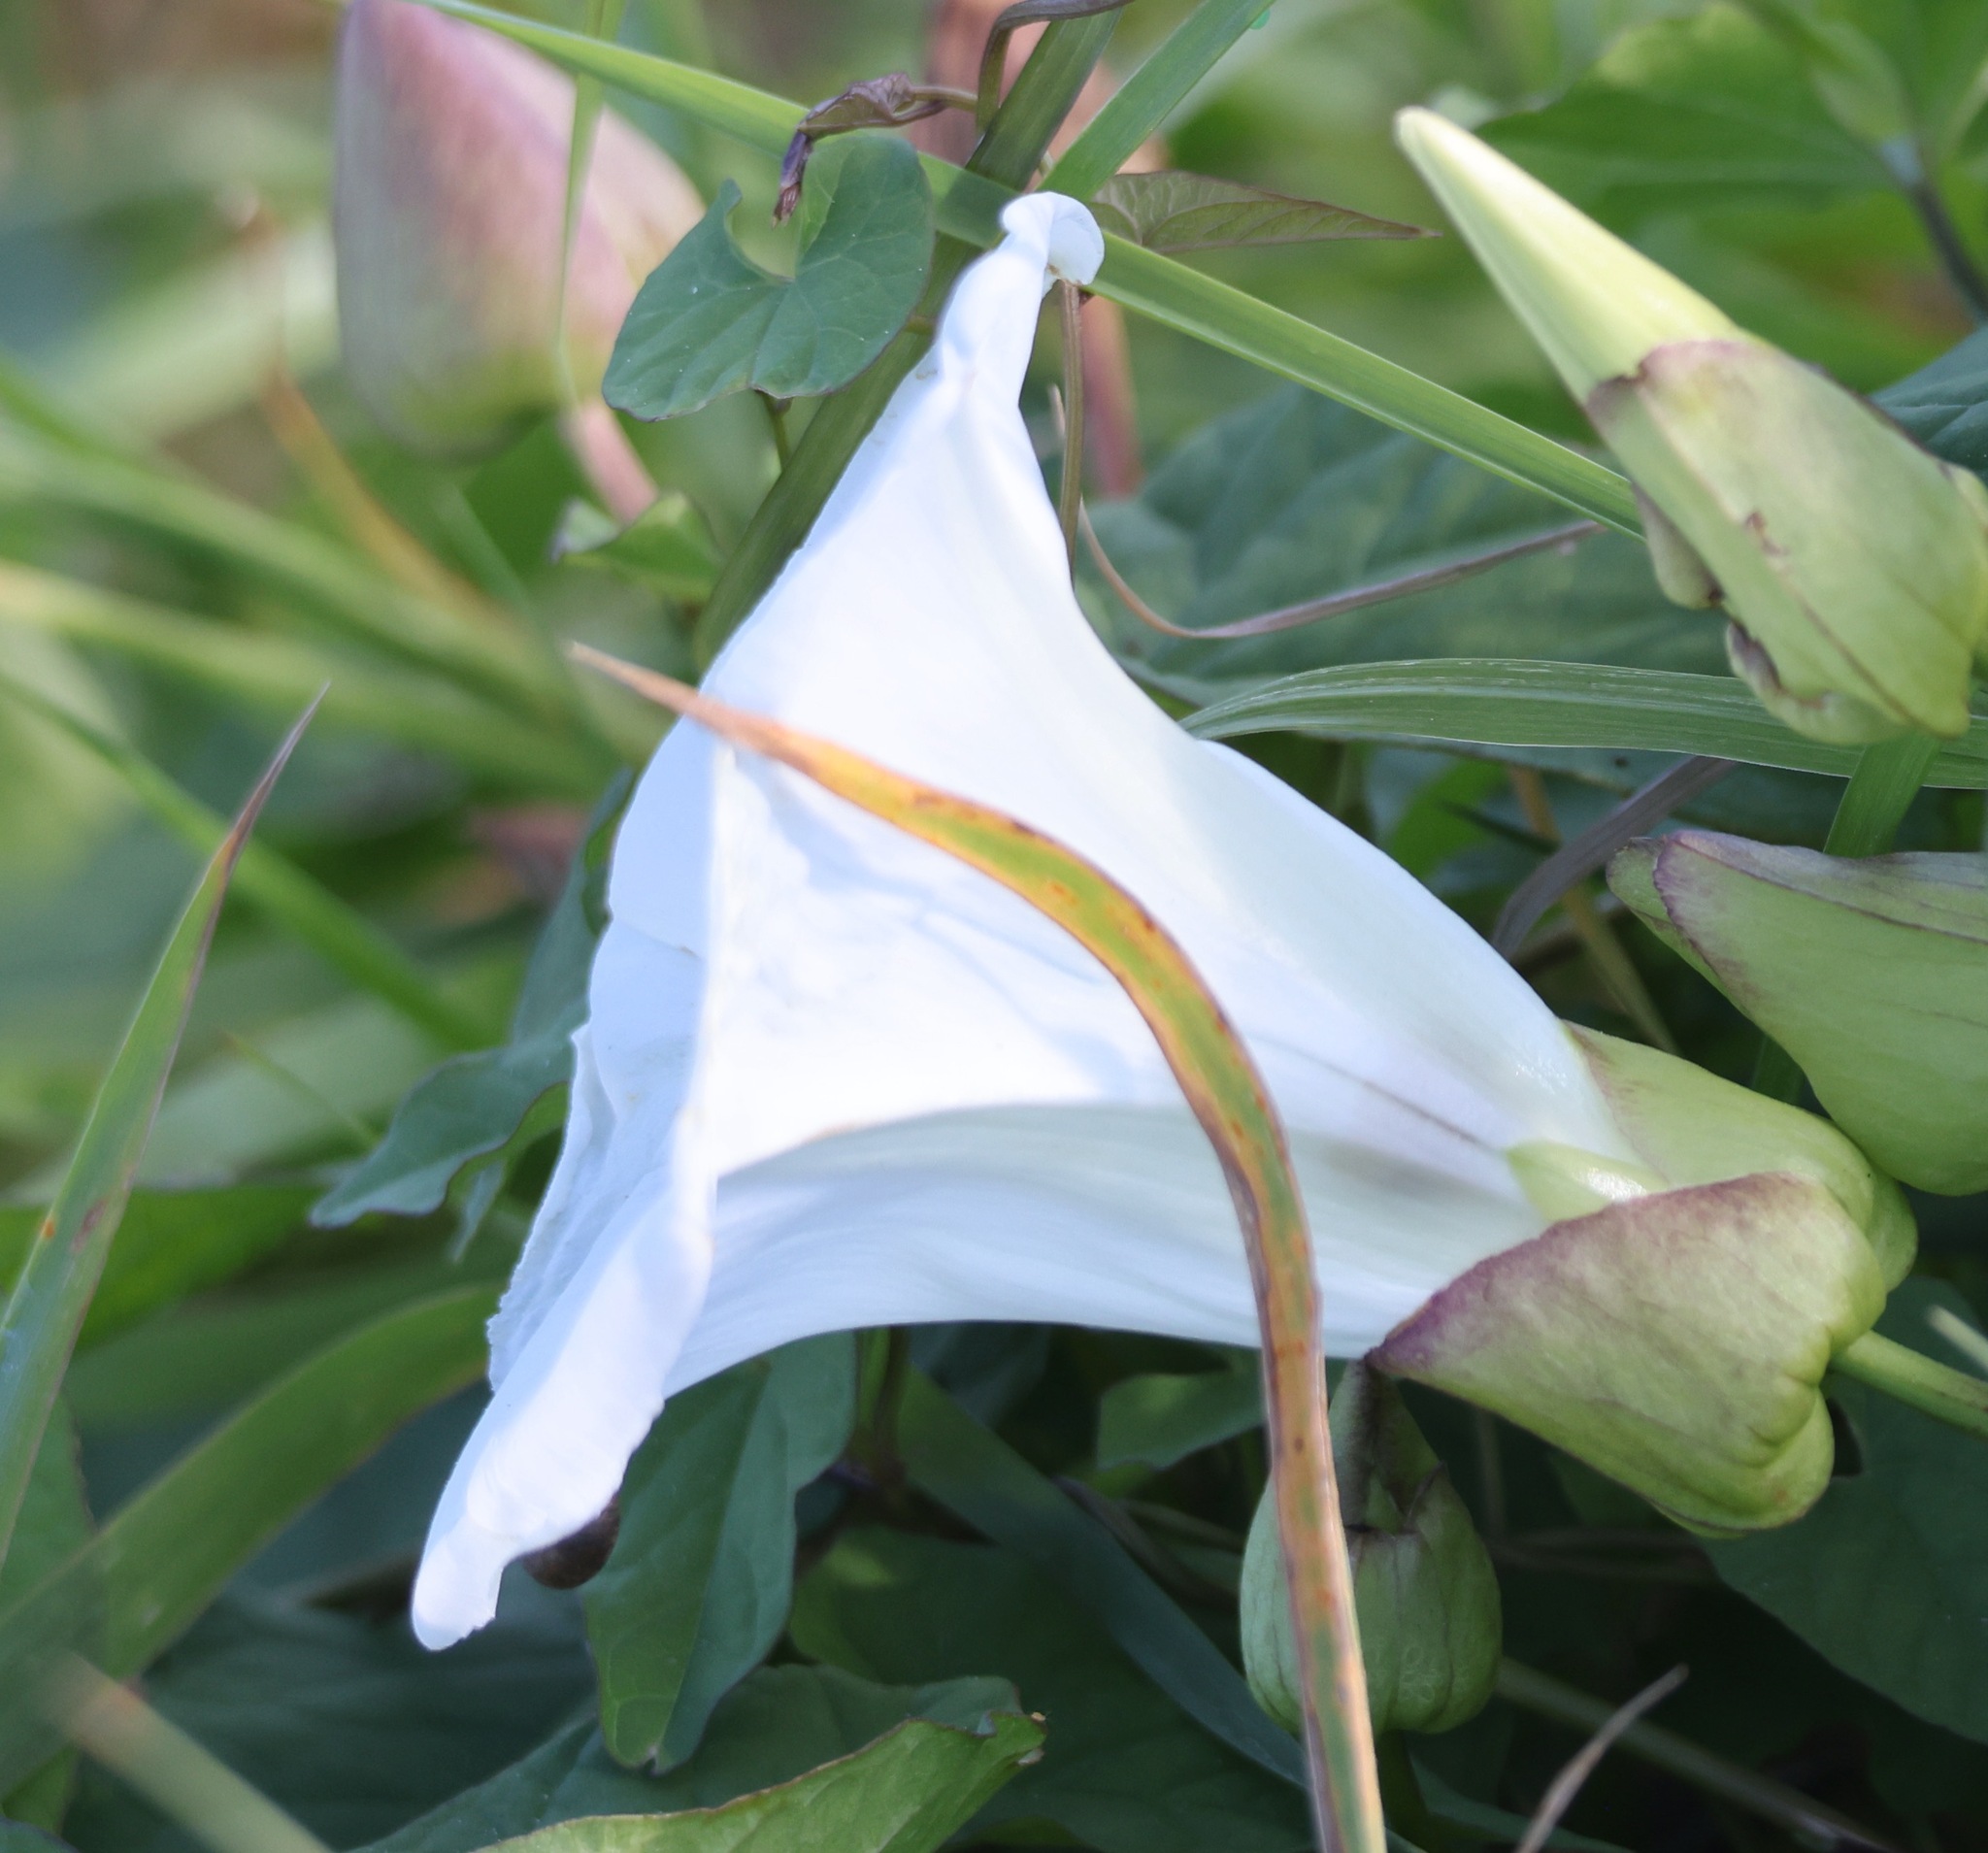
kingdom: Plantae
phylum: Tracheophyta
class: Magnoliopsida
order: Solanales
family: Convolvulaceae
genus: Calystegia
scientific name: Calystegia silvatica
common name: Large bindweed
